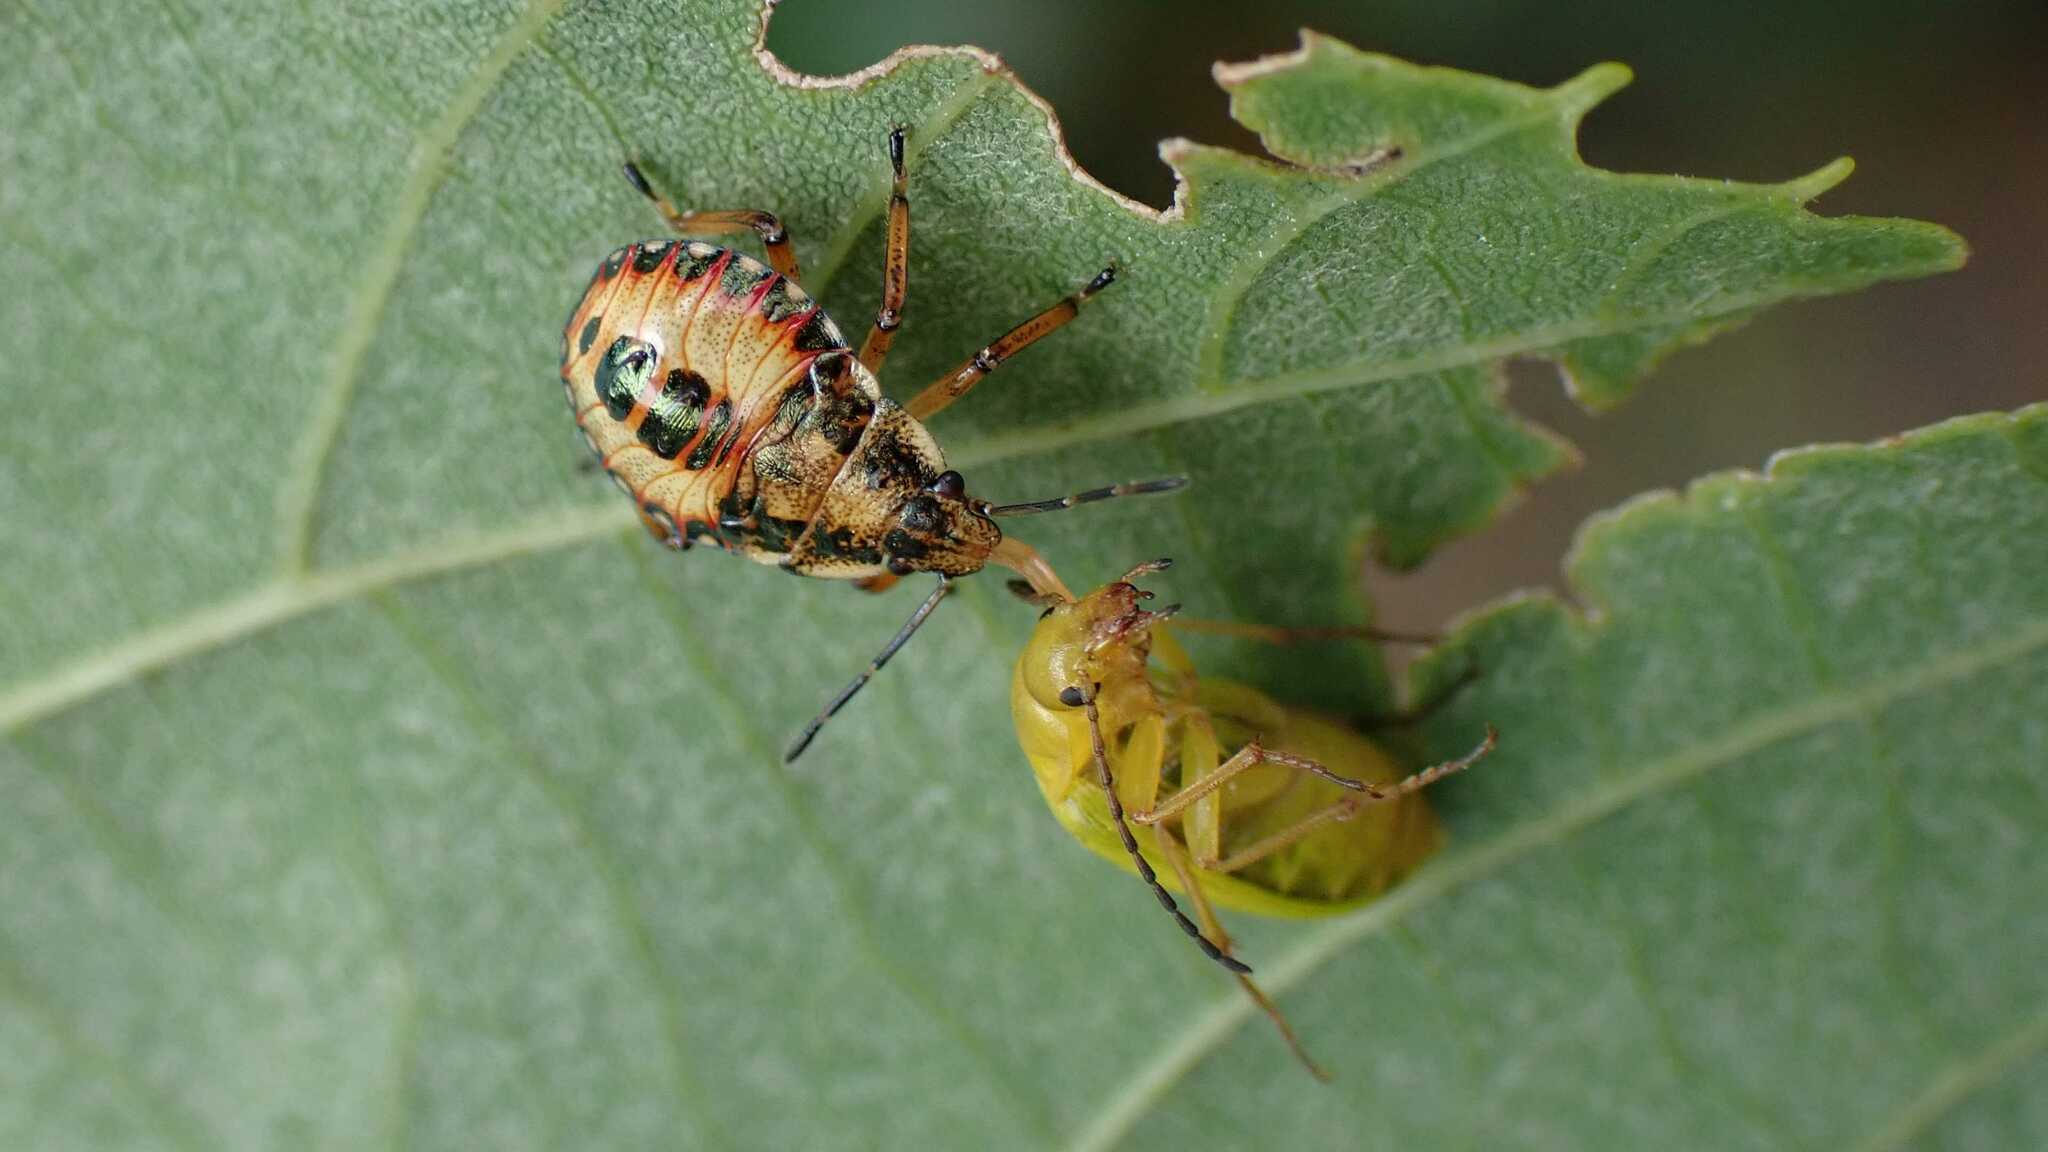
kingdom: Animalia
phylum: Arthropoda
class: Insecta
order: Hemiptera
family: Pentatomidae
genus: Arma
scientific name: Arma custos
